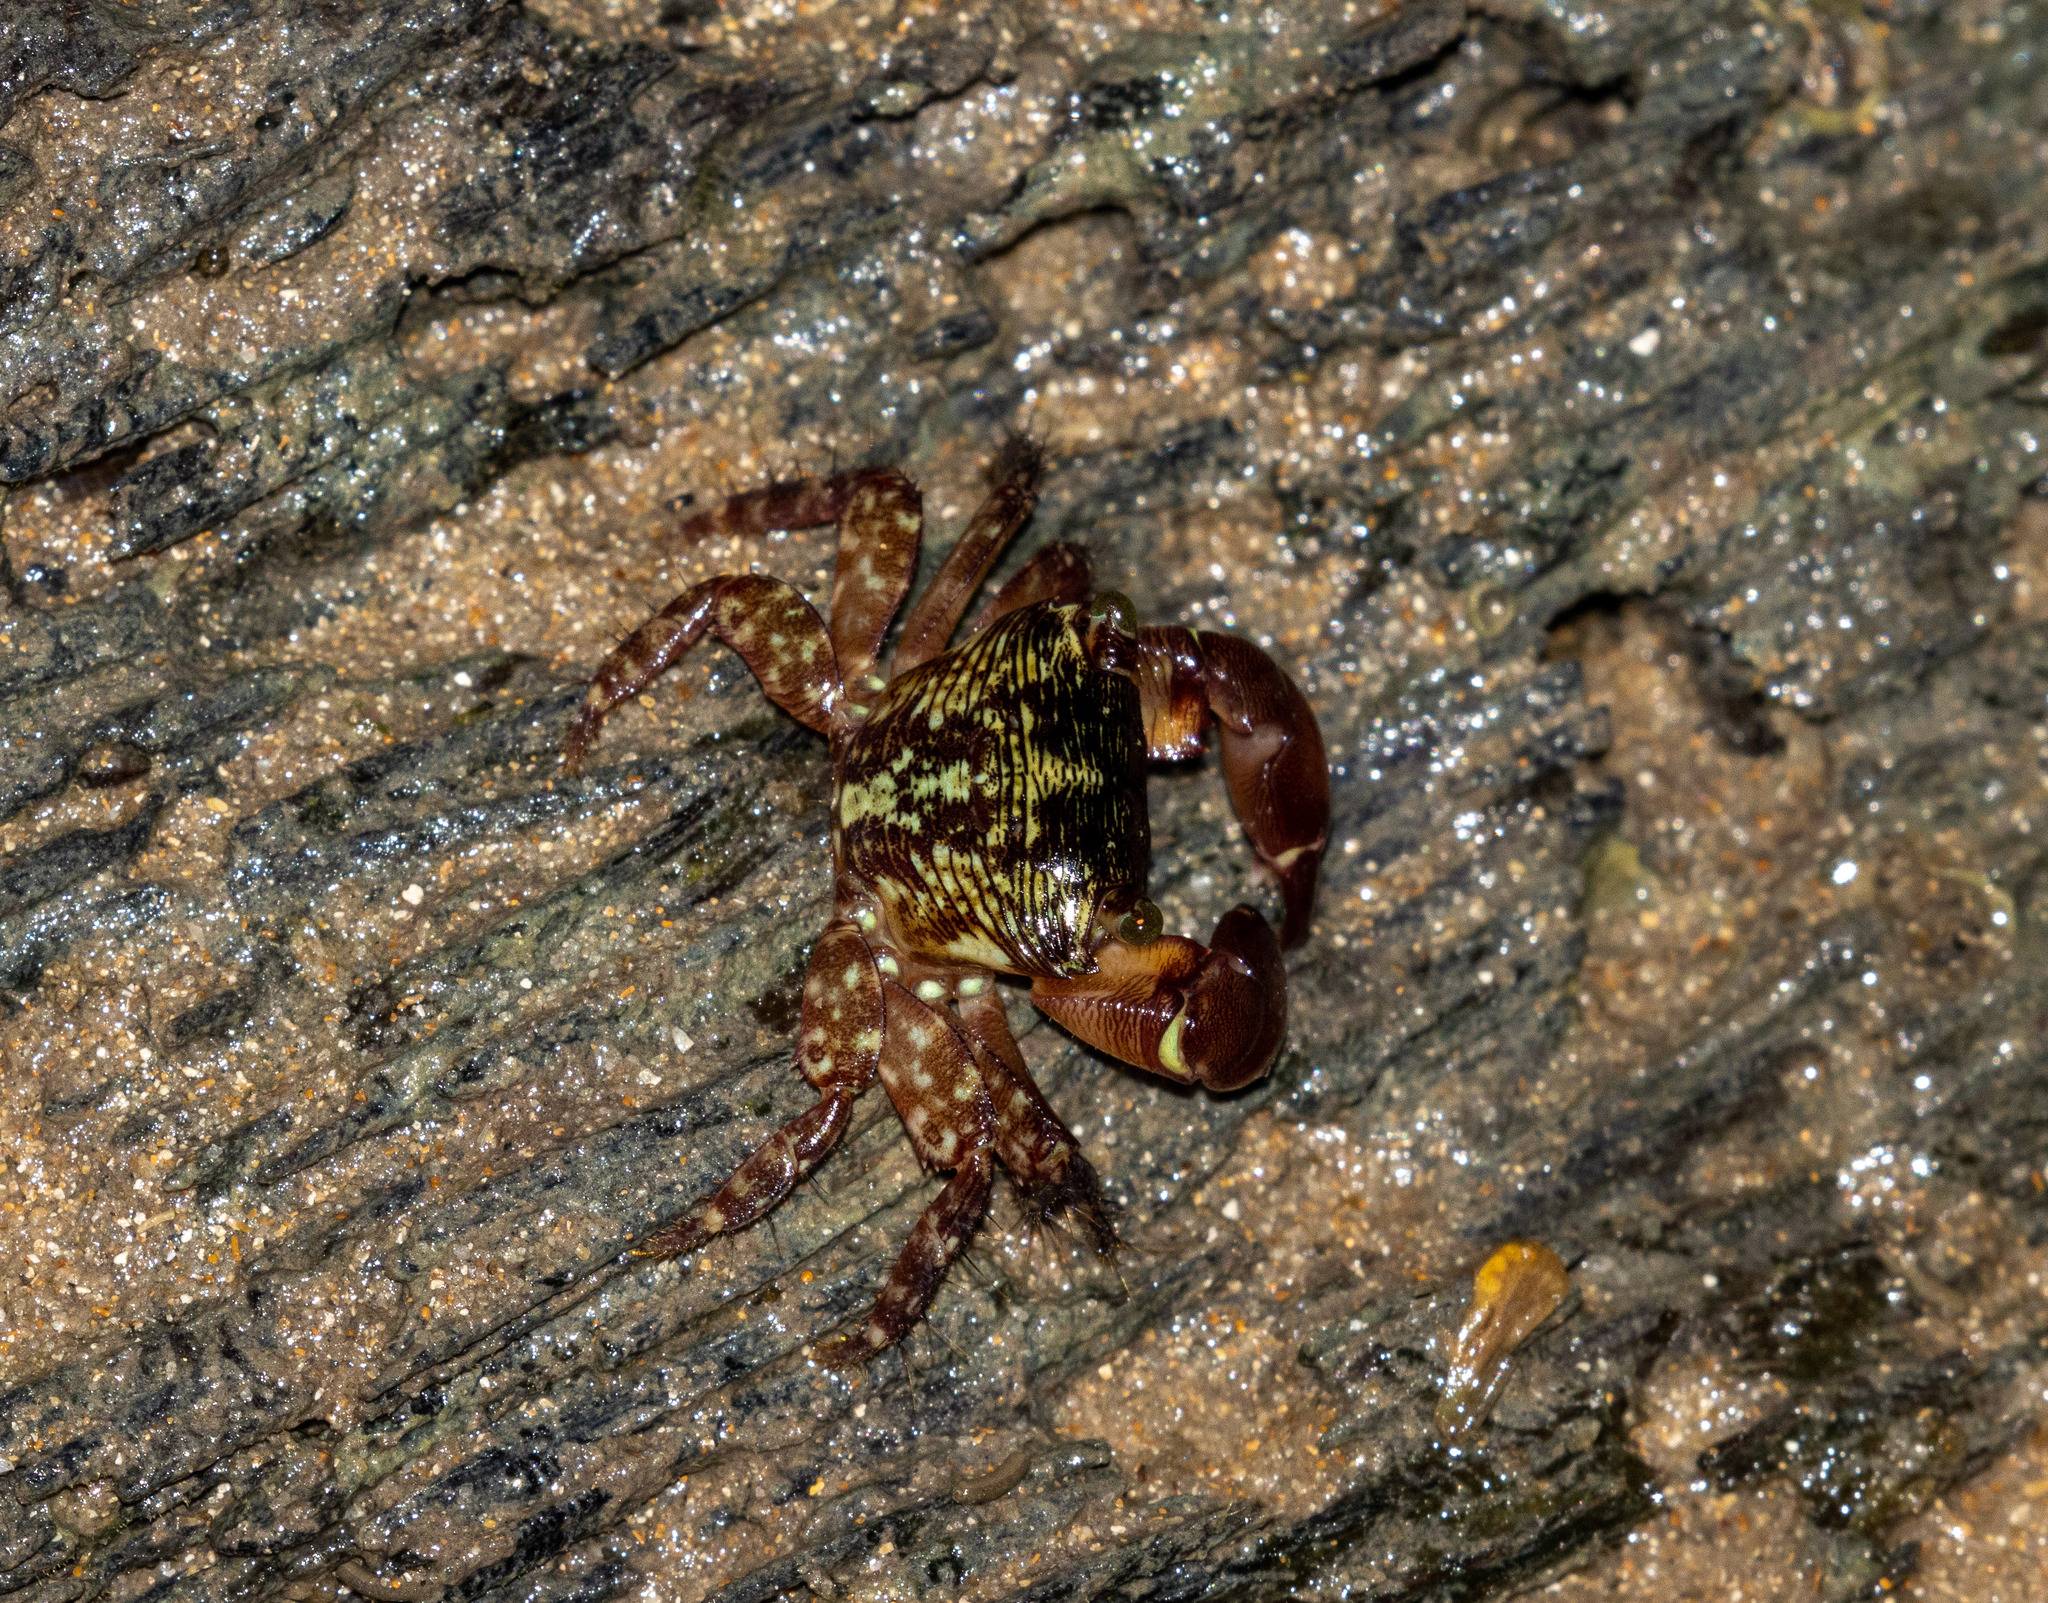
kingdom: Animalia
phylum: Arthropoda
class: Malacostraca
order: Decapoda
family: Grapsidae
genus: Pachygrapsus
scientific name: Pachygrapsus transversus
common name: Mottled shore crab
